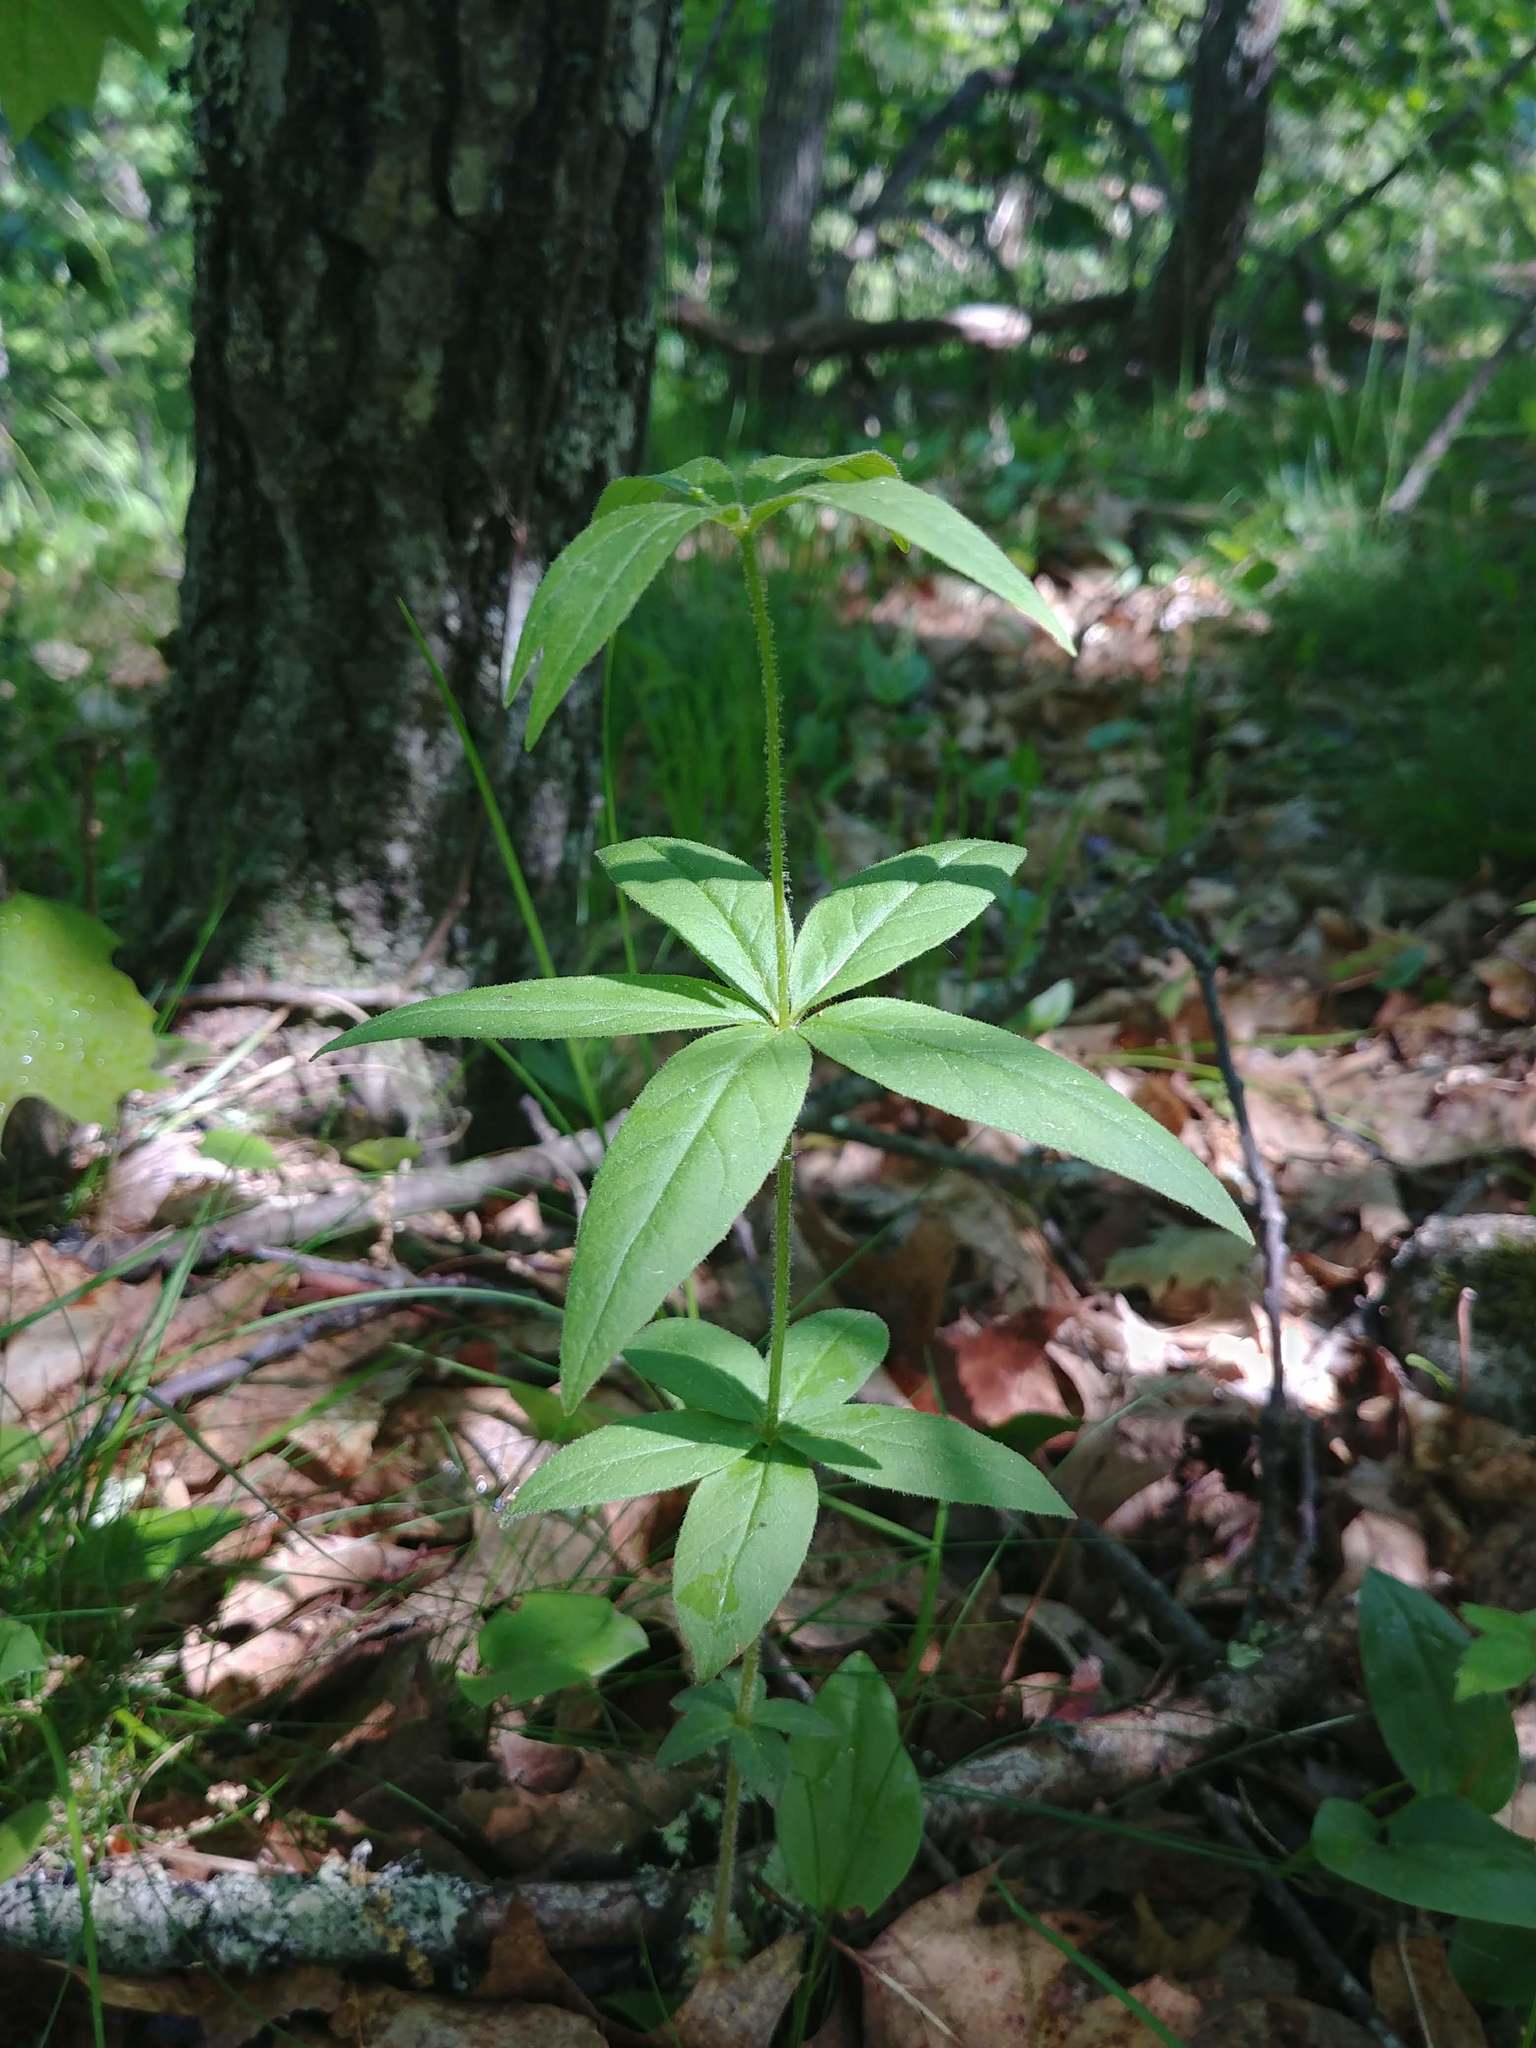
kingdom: Plantae
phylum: Tracheophyta
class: Magnoliopsida
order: Ericales
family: Primulaceae
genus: Lysimachia
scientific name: Lysimachia quadrifolia
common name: Whorled loosestrife
